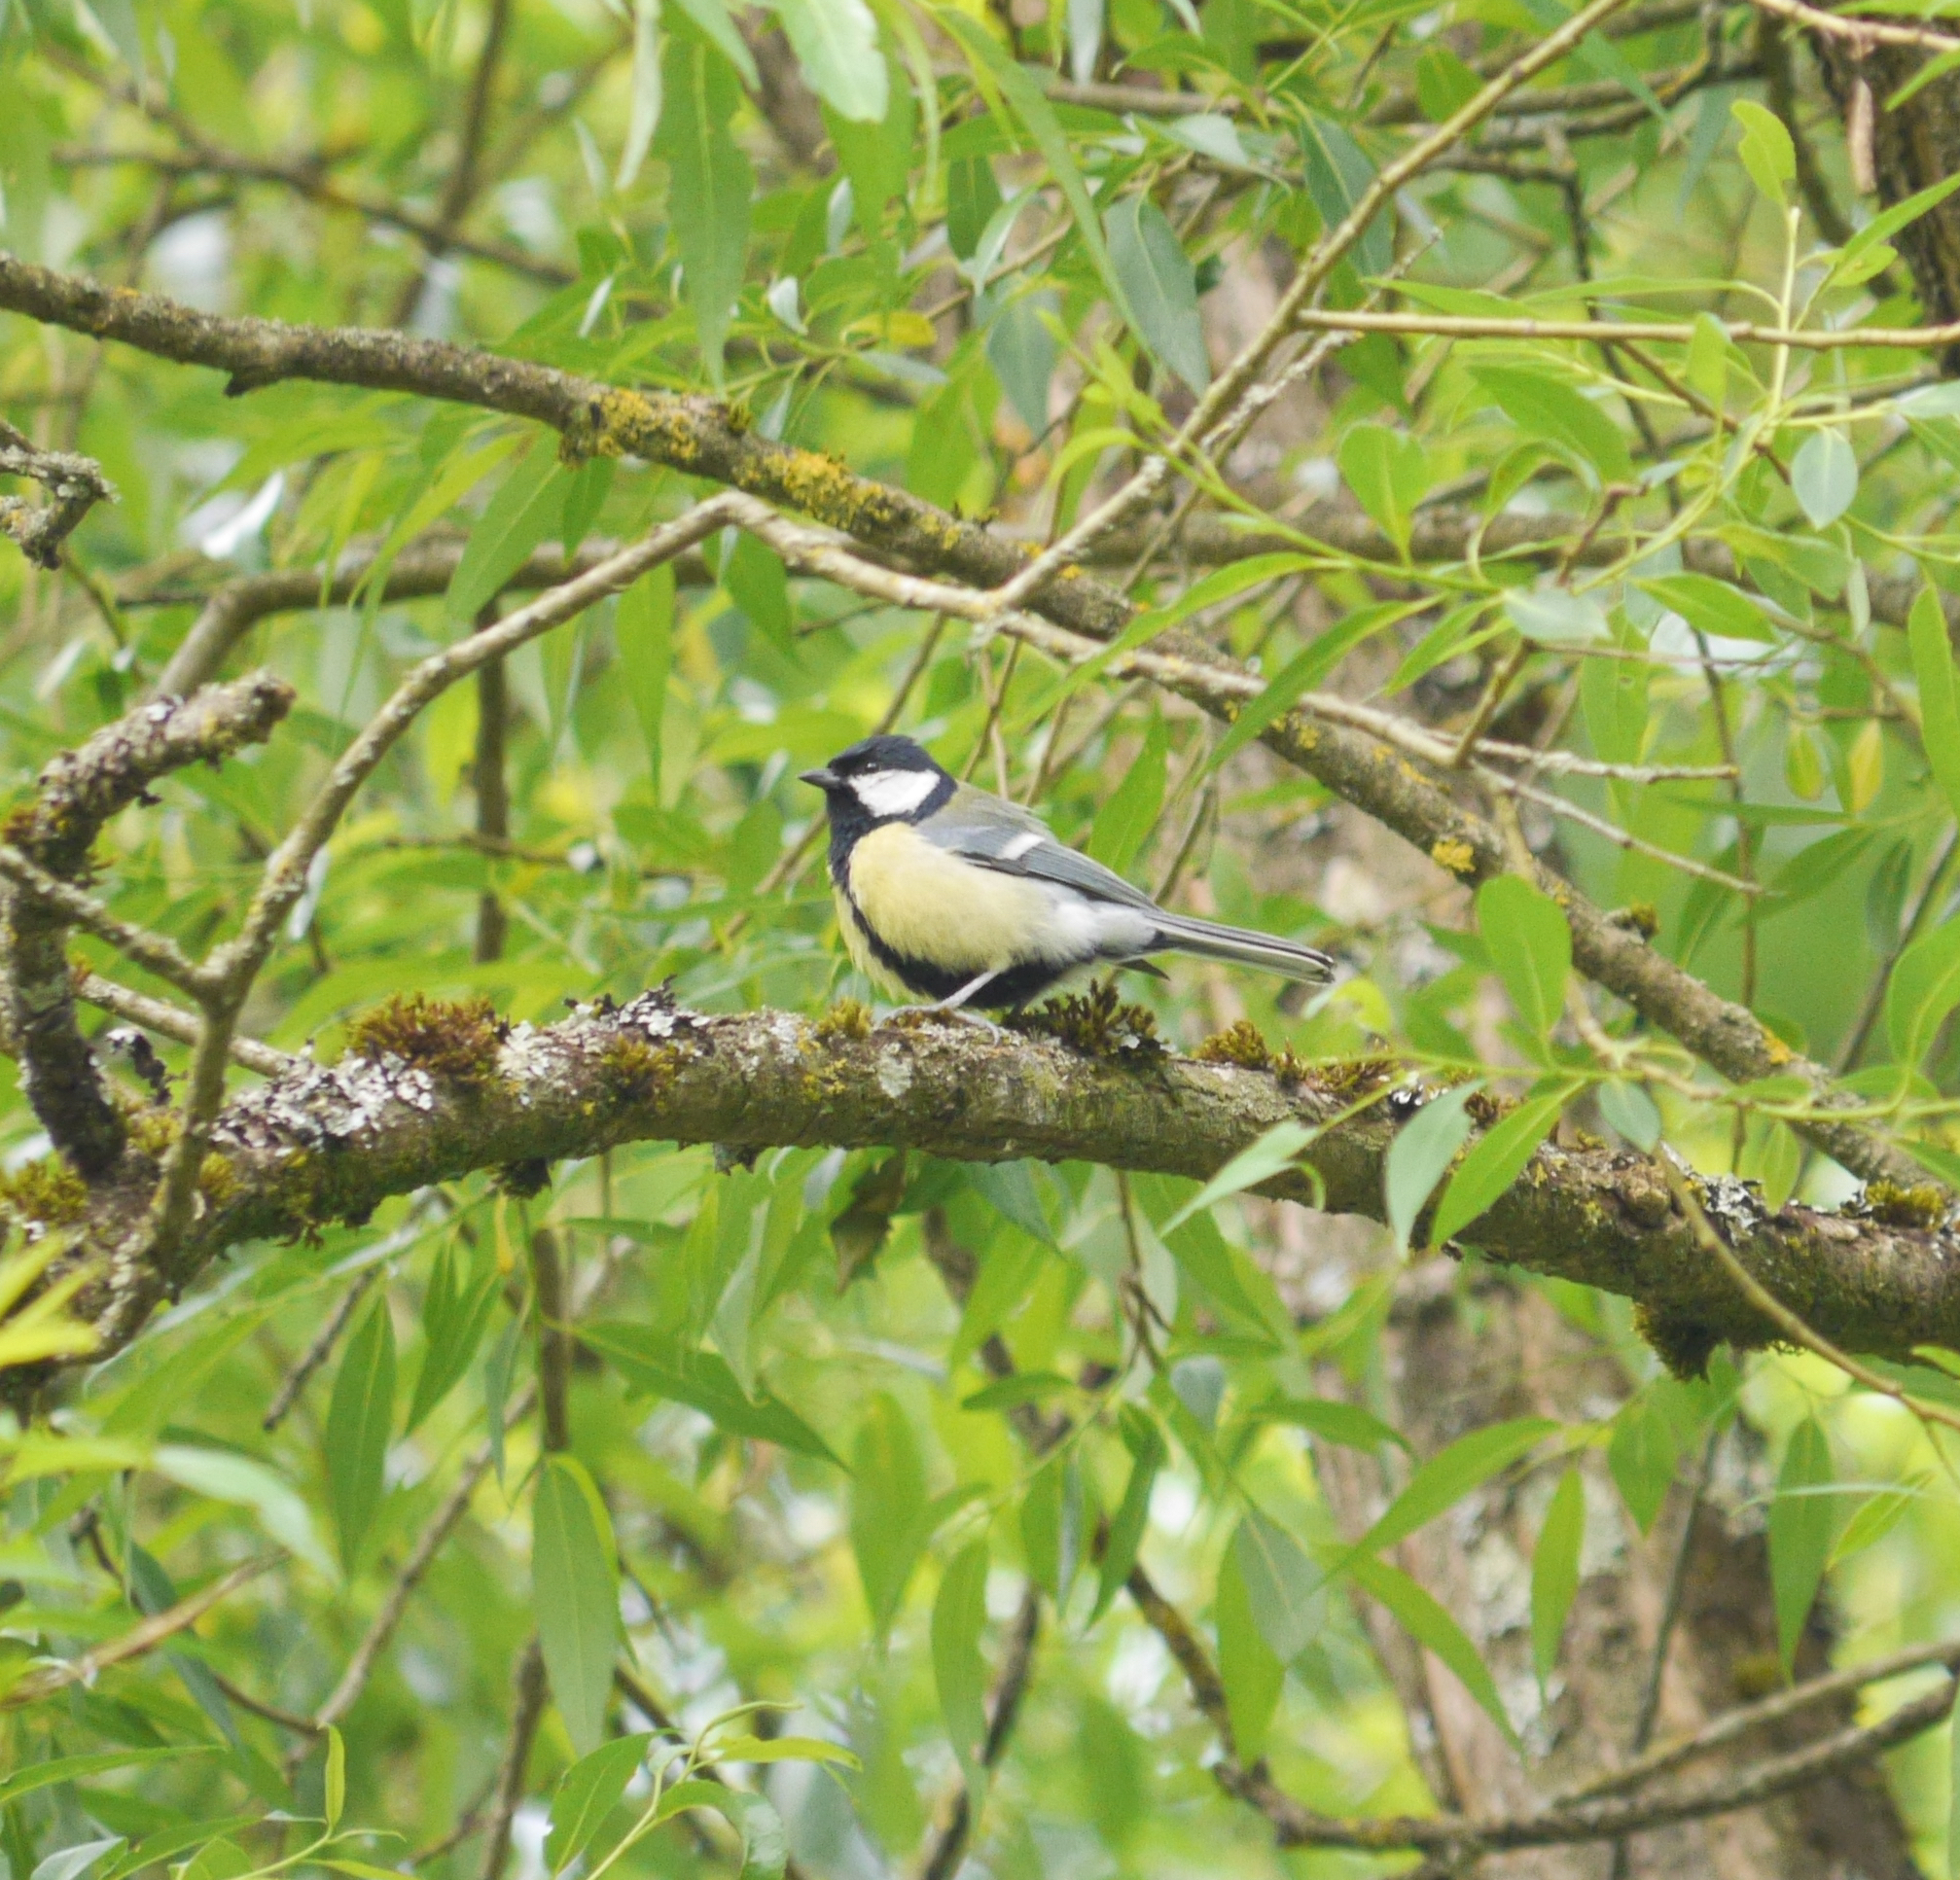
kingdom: Animalia
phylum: Chordata
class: Aves
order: Passeriformes
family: Paridae
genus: Parus
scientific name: Parus major
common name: Great tit
